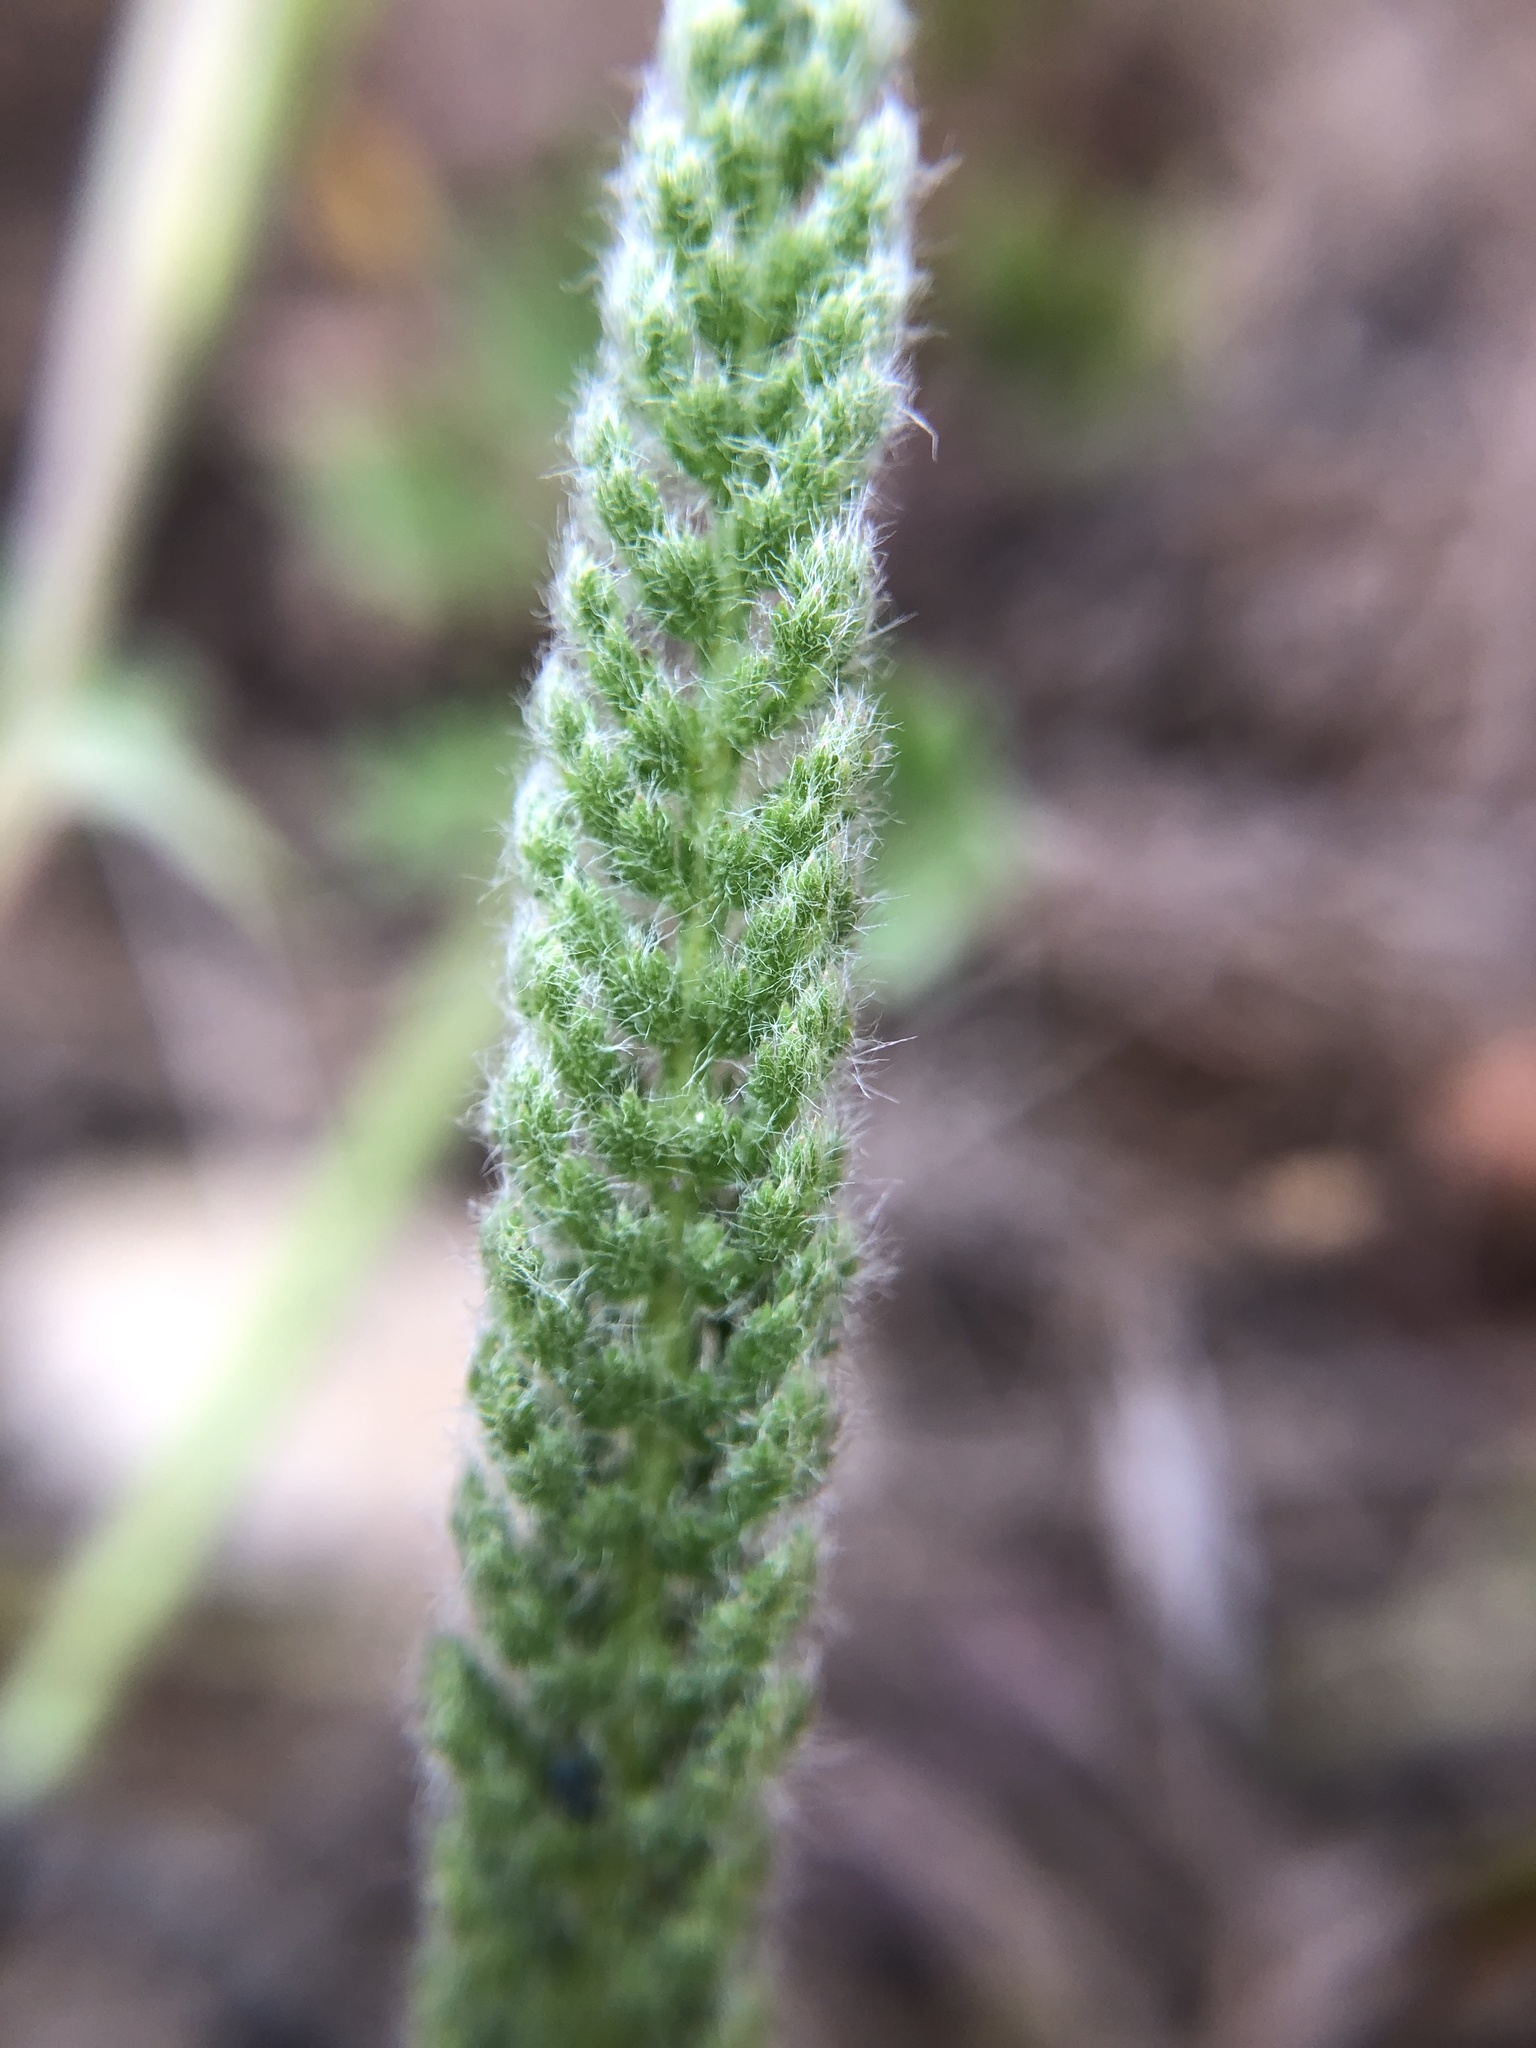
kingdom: Plantae
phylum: Tracheophyta
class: Magnoliopsida
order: Asterales
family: Asteraceae
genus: Achillea
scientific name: Achillea millefolium
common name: Yarrow
